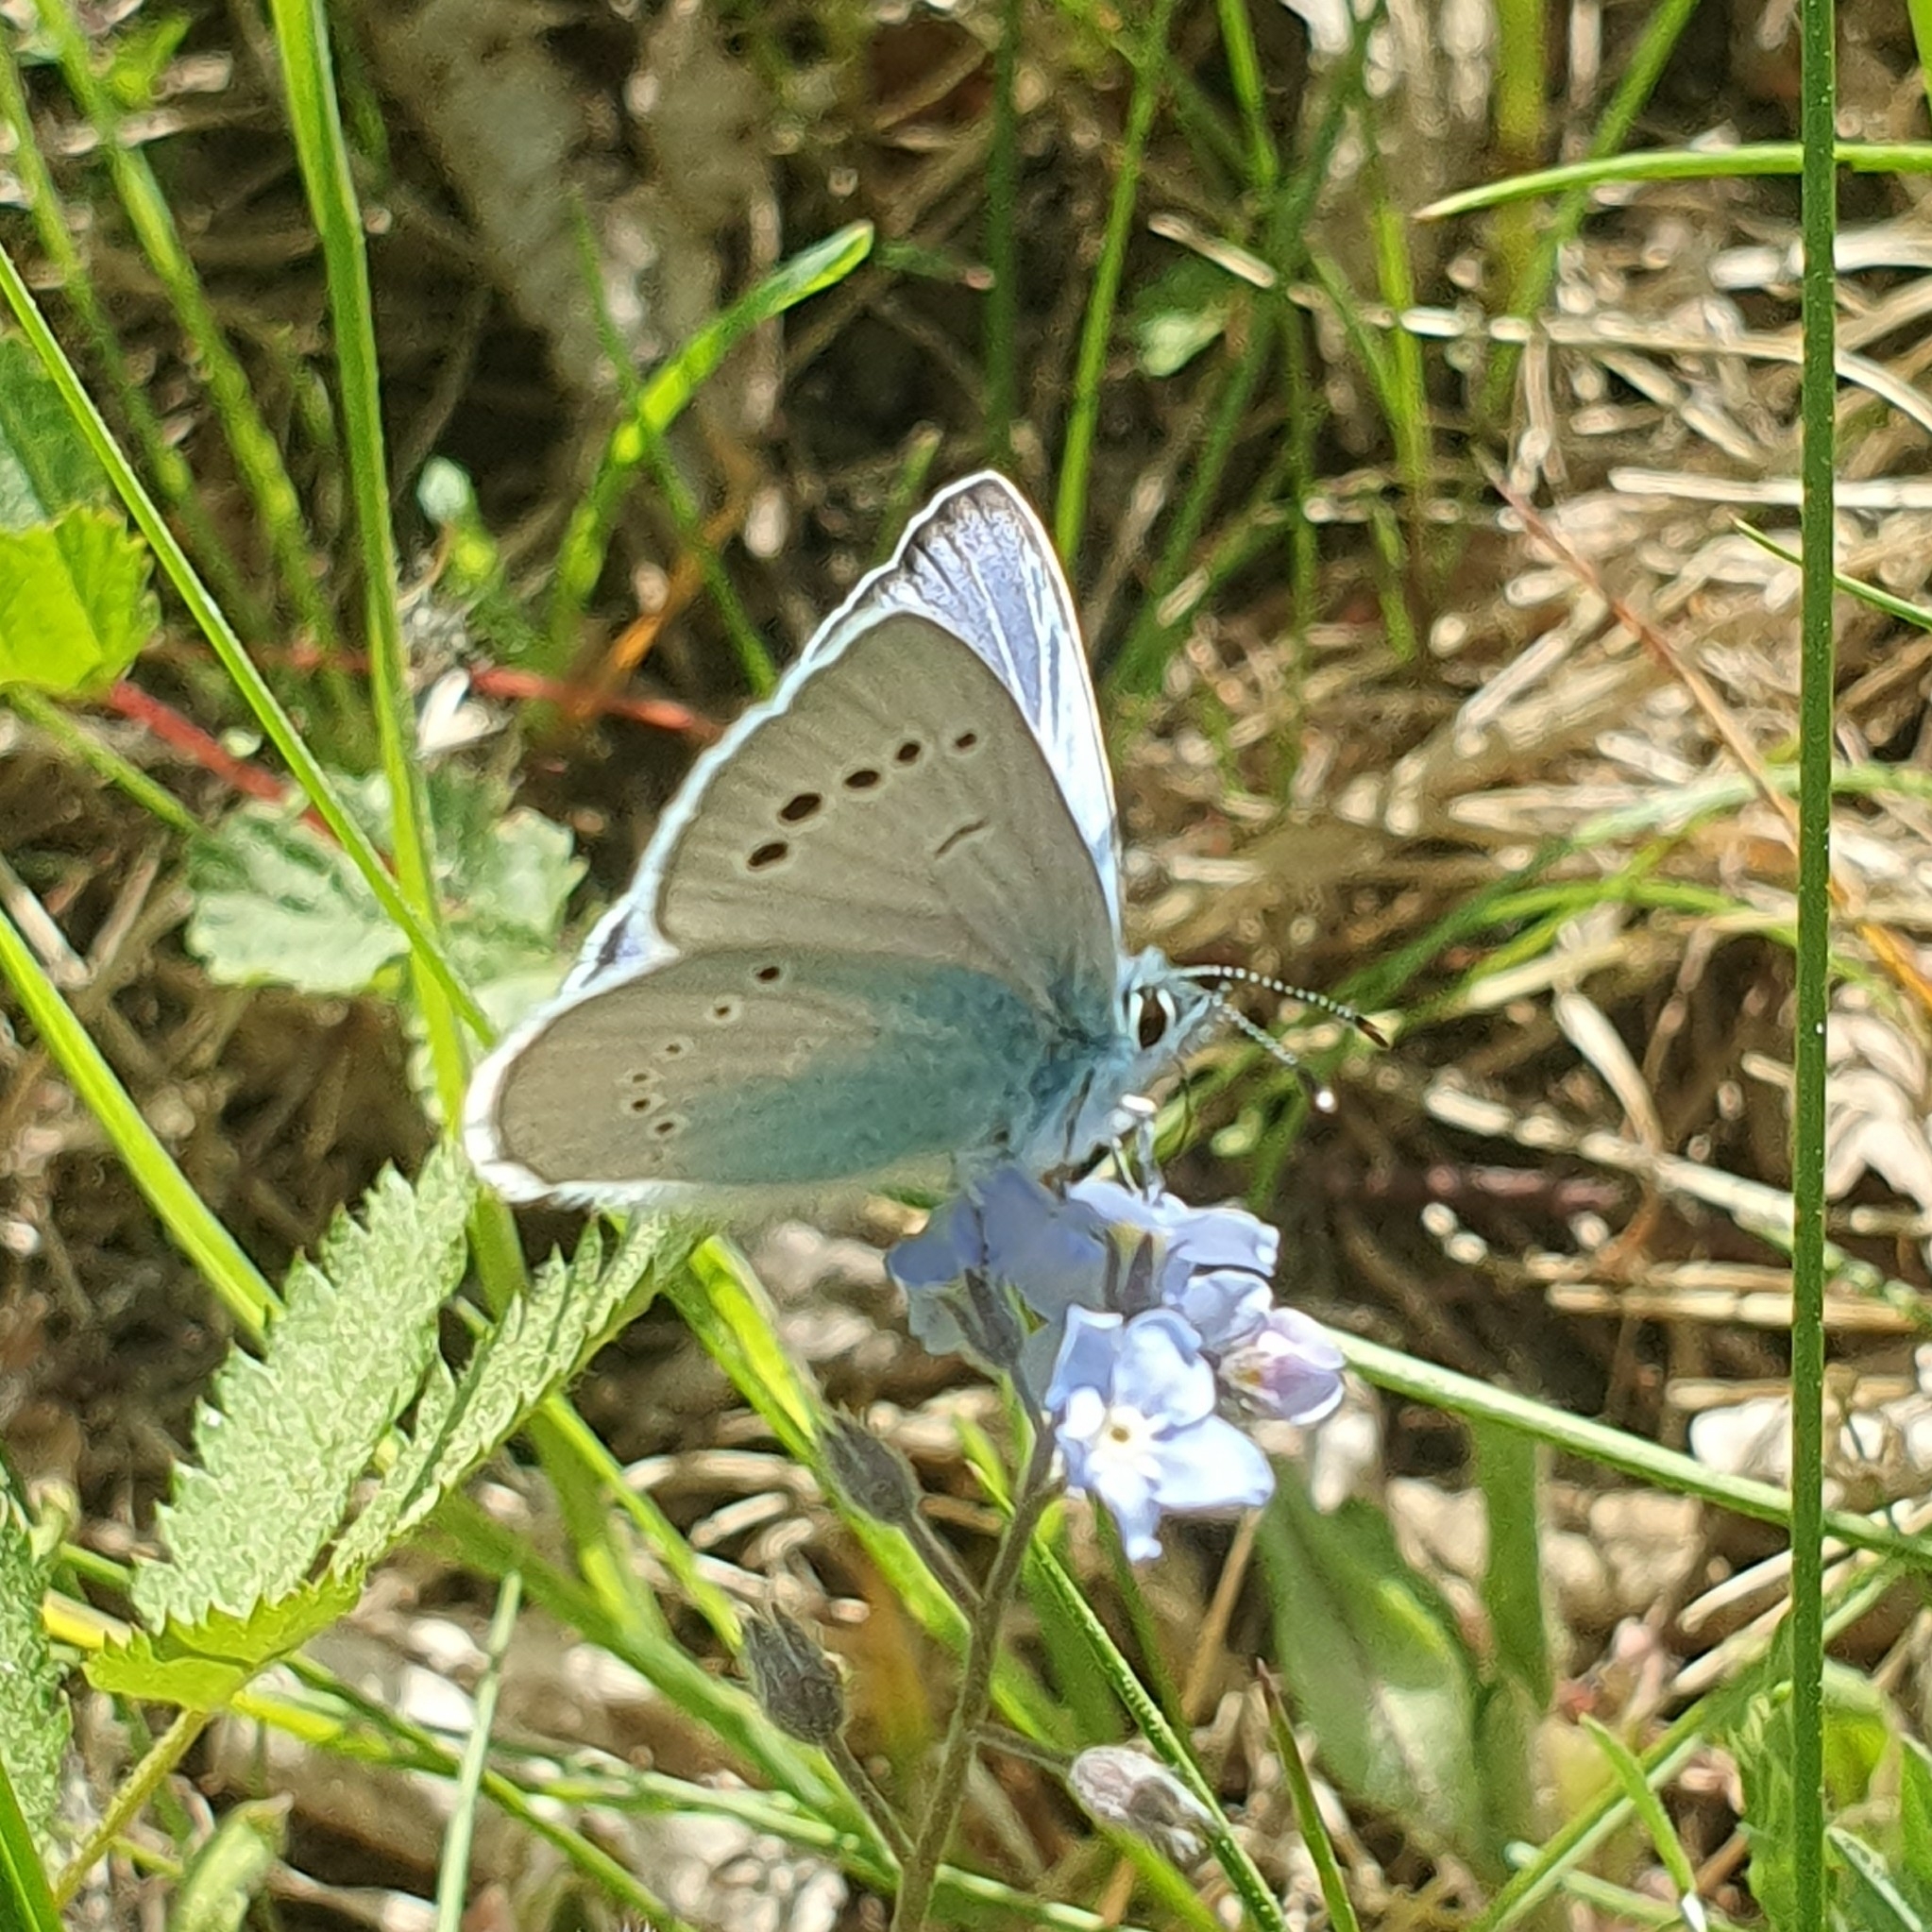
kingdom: Animalia
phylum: Arthropoda
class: Insecta
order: Lepidoptera
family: Lycaenidae
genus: Glaucopsyche
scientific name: Glaucopsyche alexis
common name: Green-underside blue
